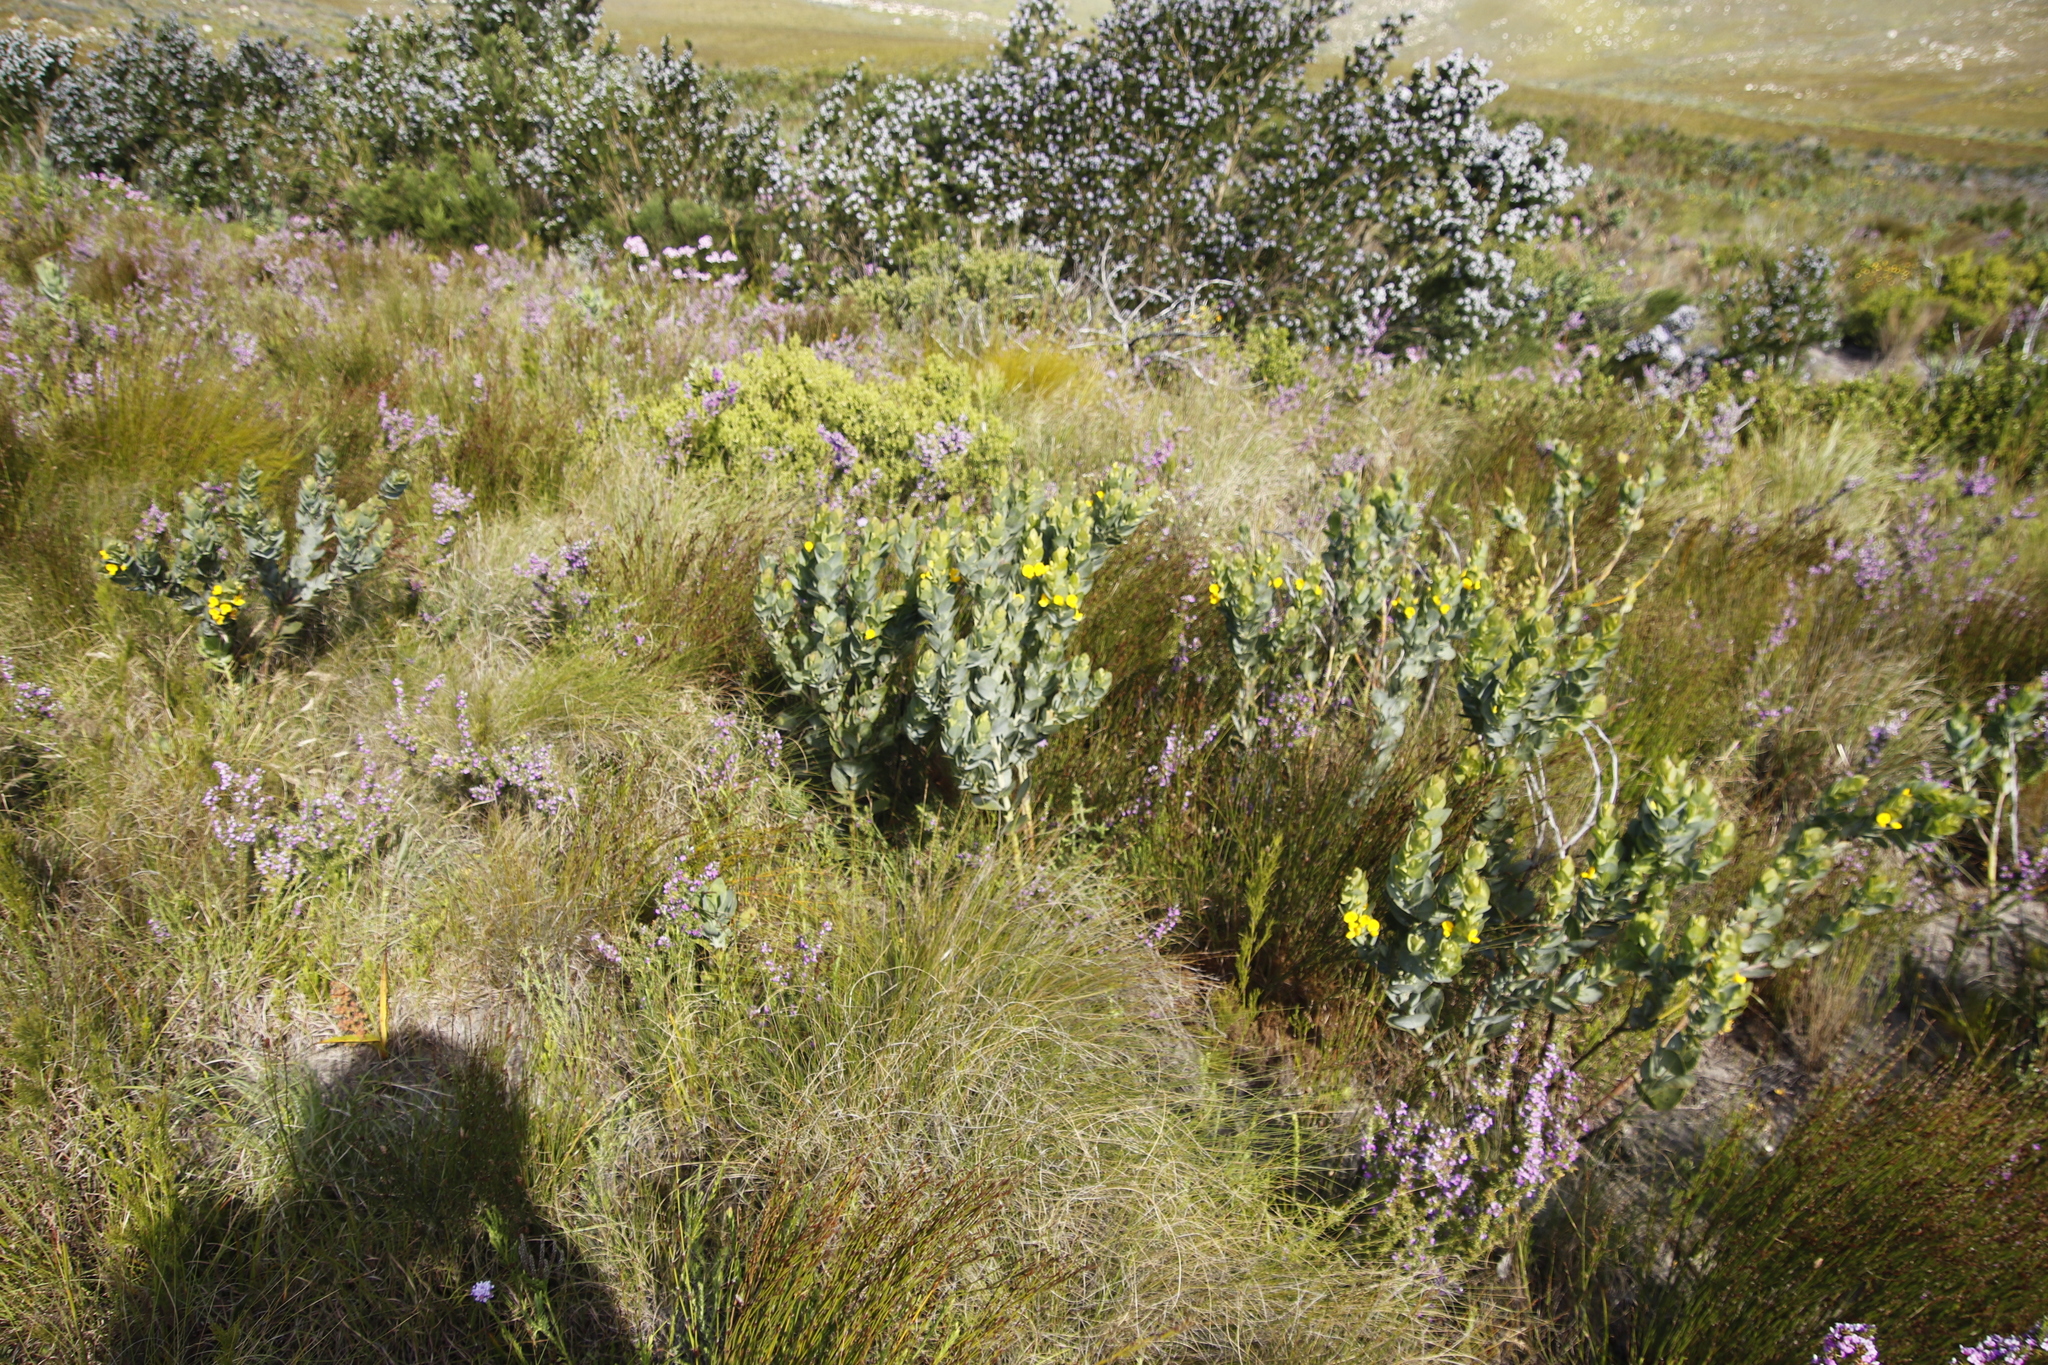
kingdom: Plantae
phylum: Tracheophyta
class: Magnoliopsida
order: Fabales
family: Fabaceae
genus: Rafnia
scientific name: Rafnia triflora
